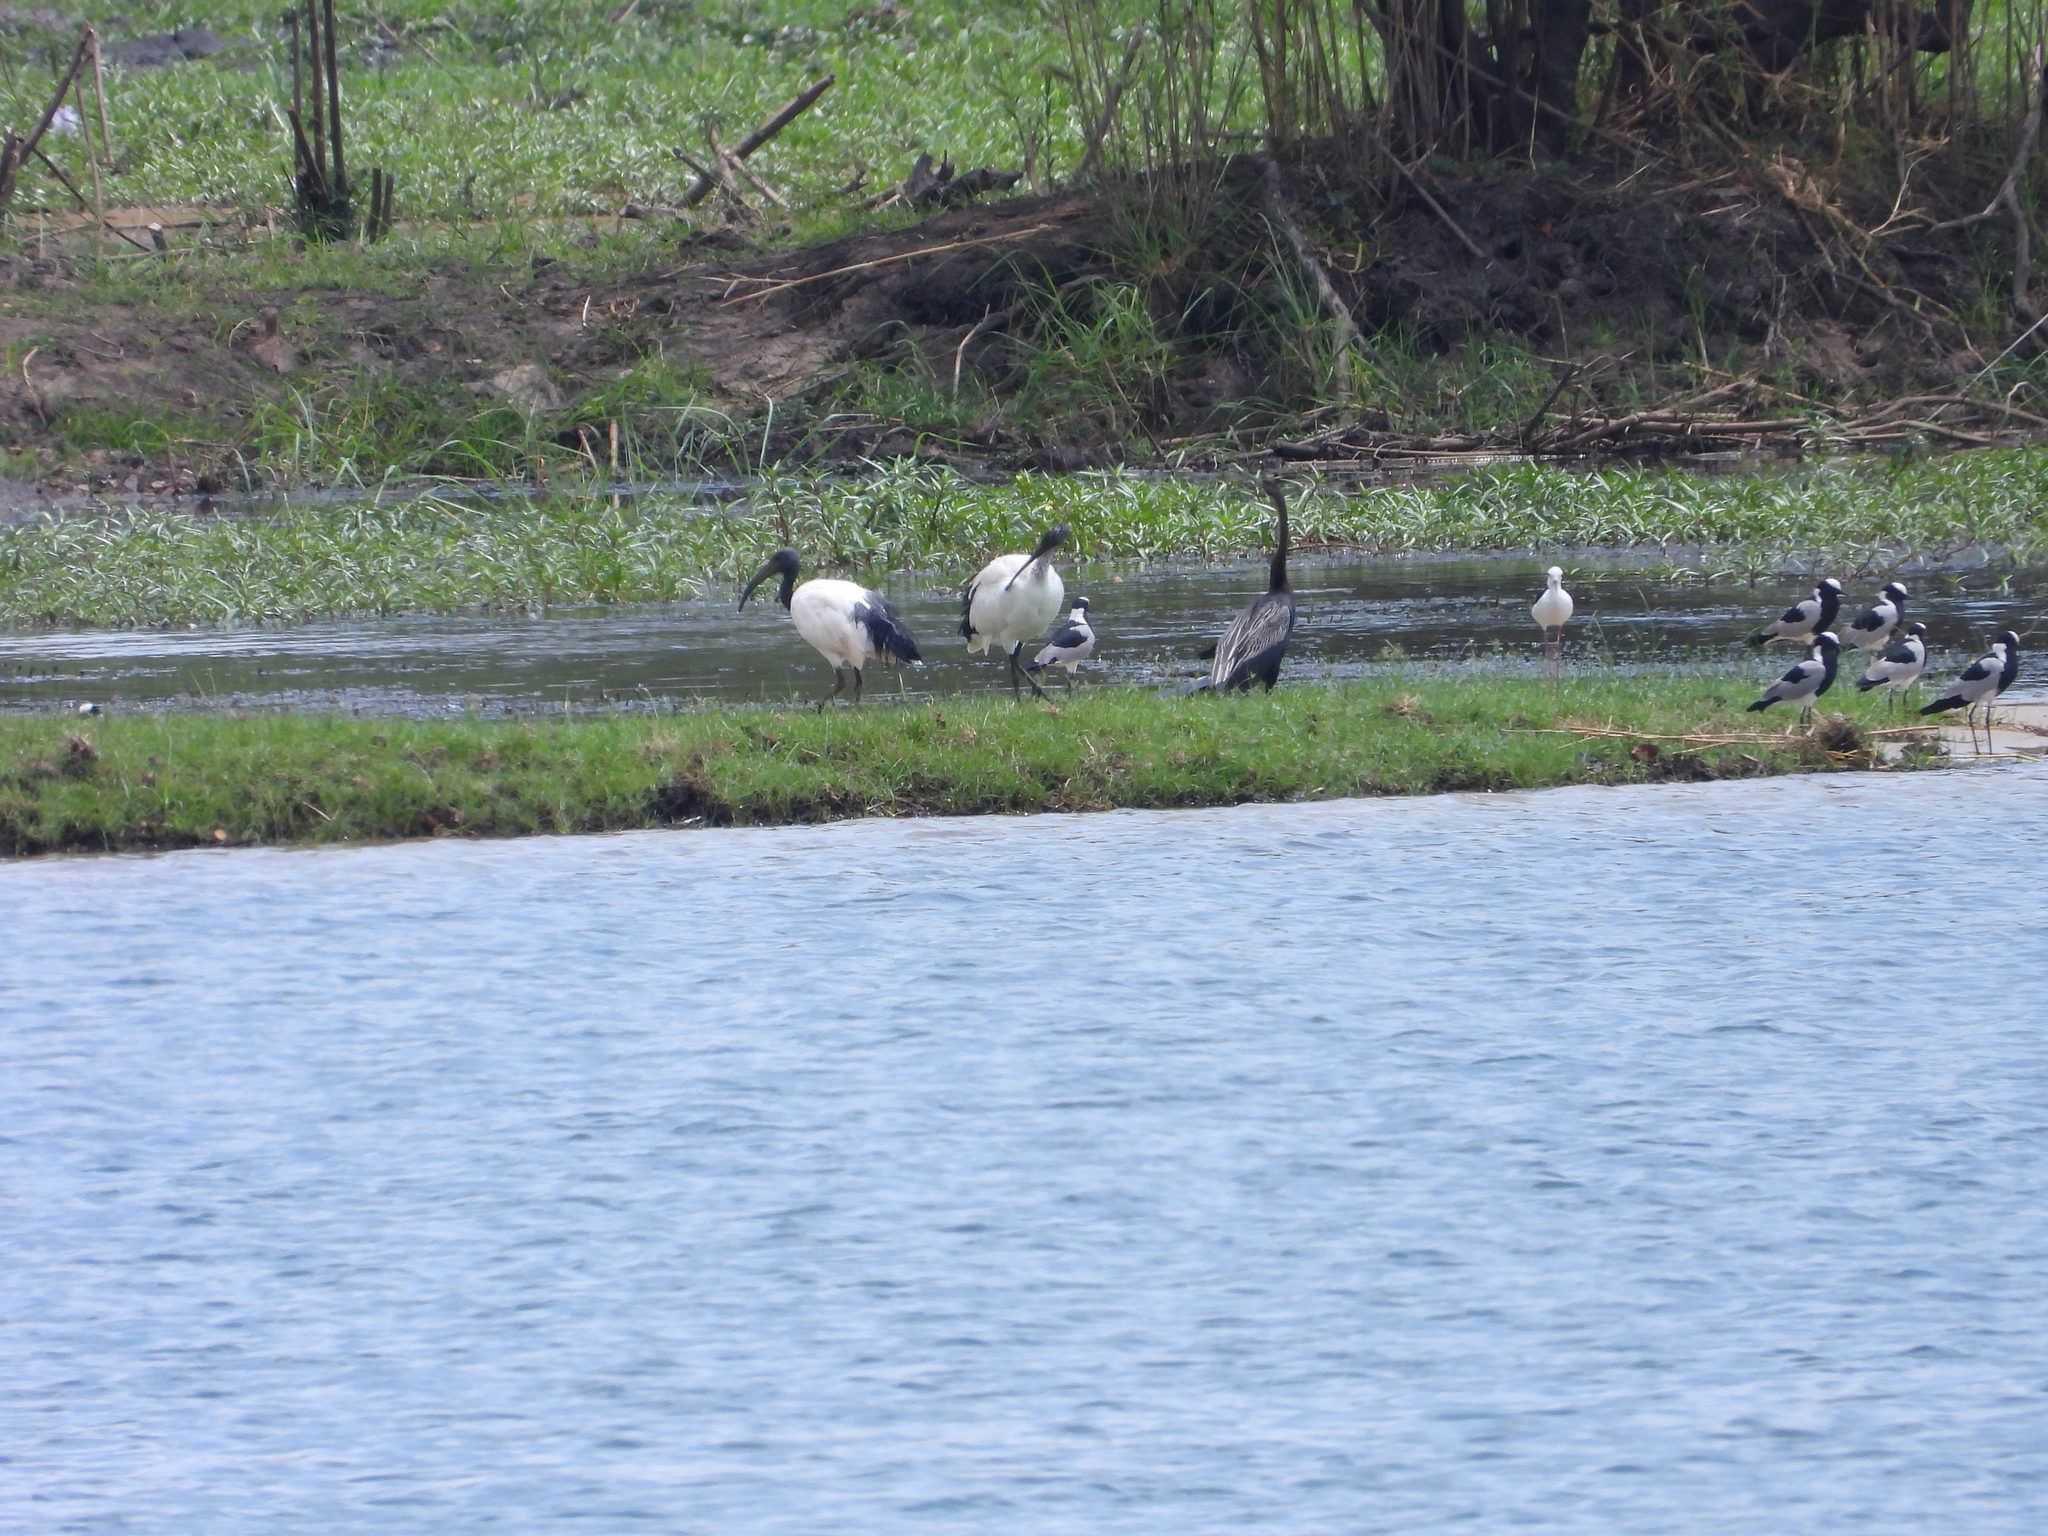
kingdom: Animalia
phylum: Chordata
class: Aves
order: Pelecaniformes
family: Threskiornithidae
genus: Threskiornis
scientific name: Threskiornis aethiopicus
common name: Sacred ibis
